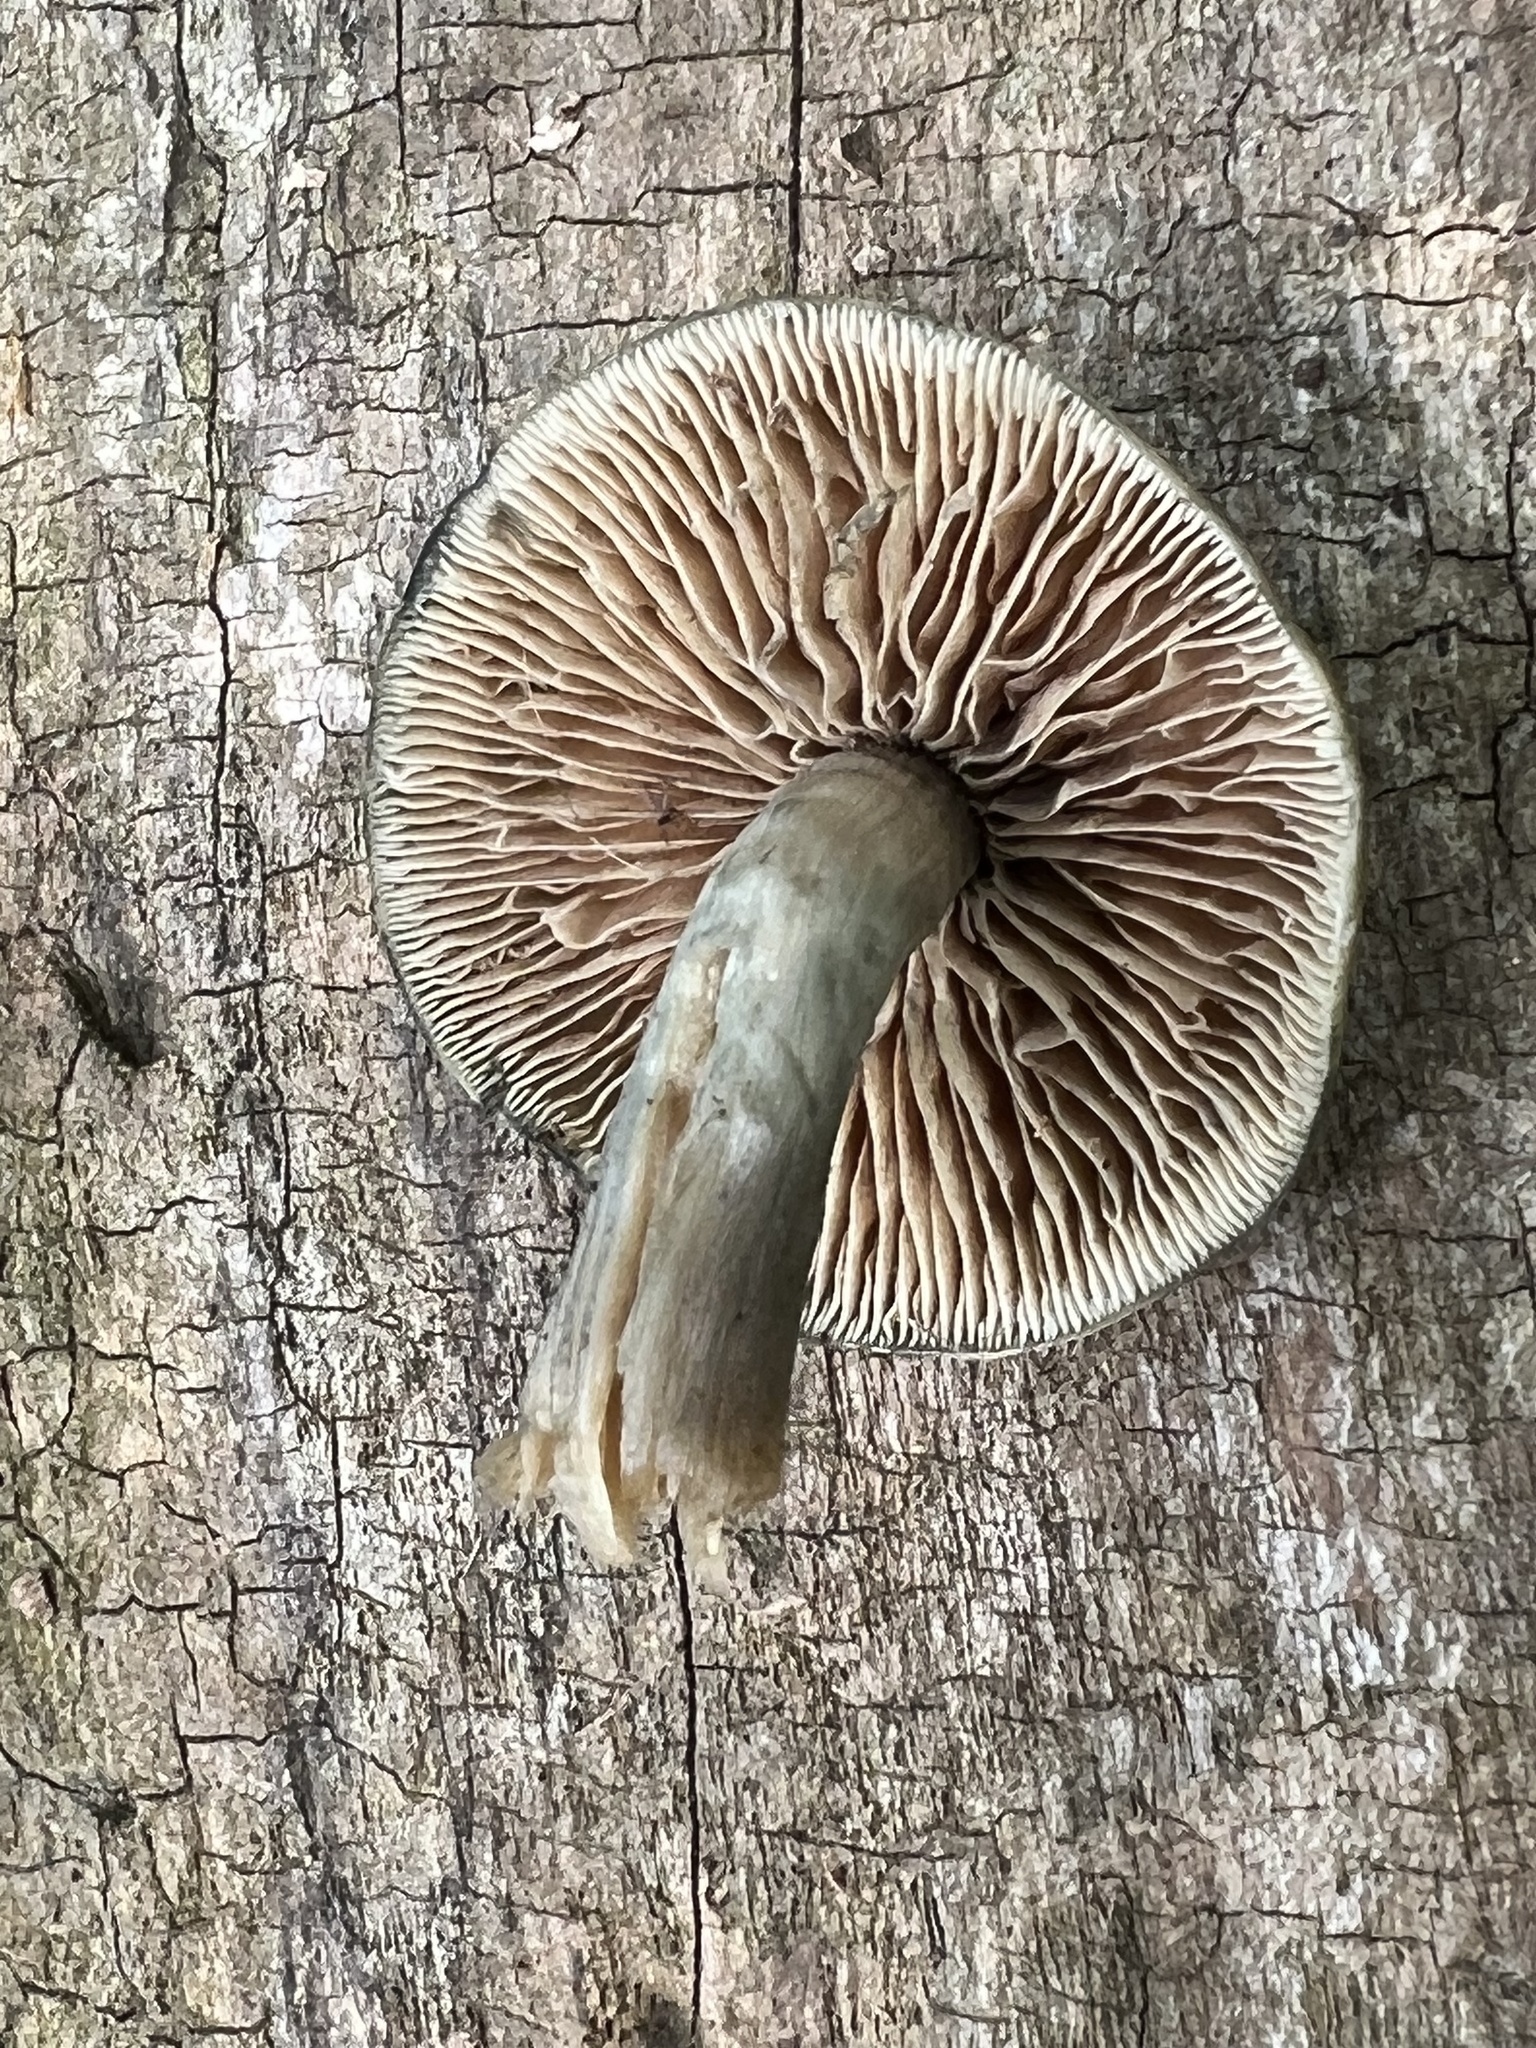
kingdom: Fungi
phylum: Basidiomycota
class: Agaricomycetes
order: Agaricales
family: Hymenogastraceae
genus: Psilocybe
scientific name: Psilocybe ovoideocystidiata
